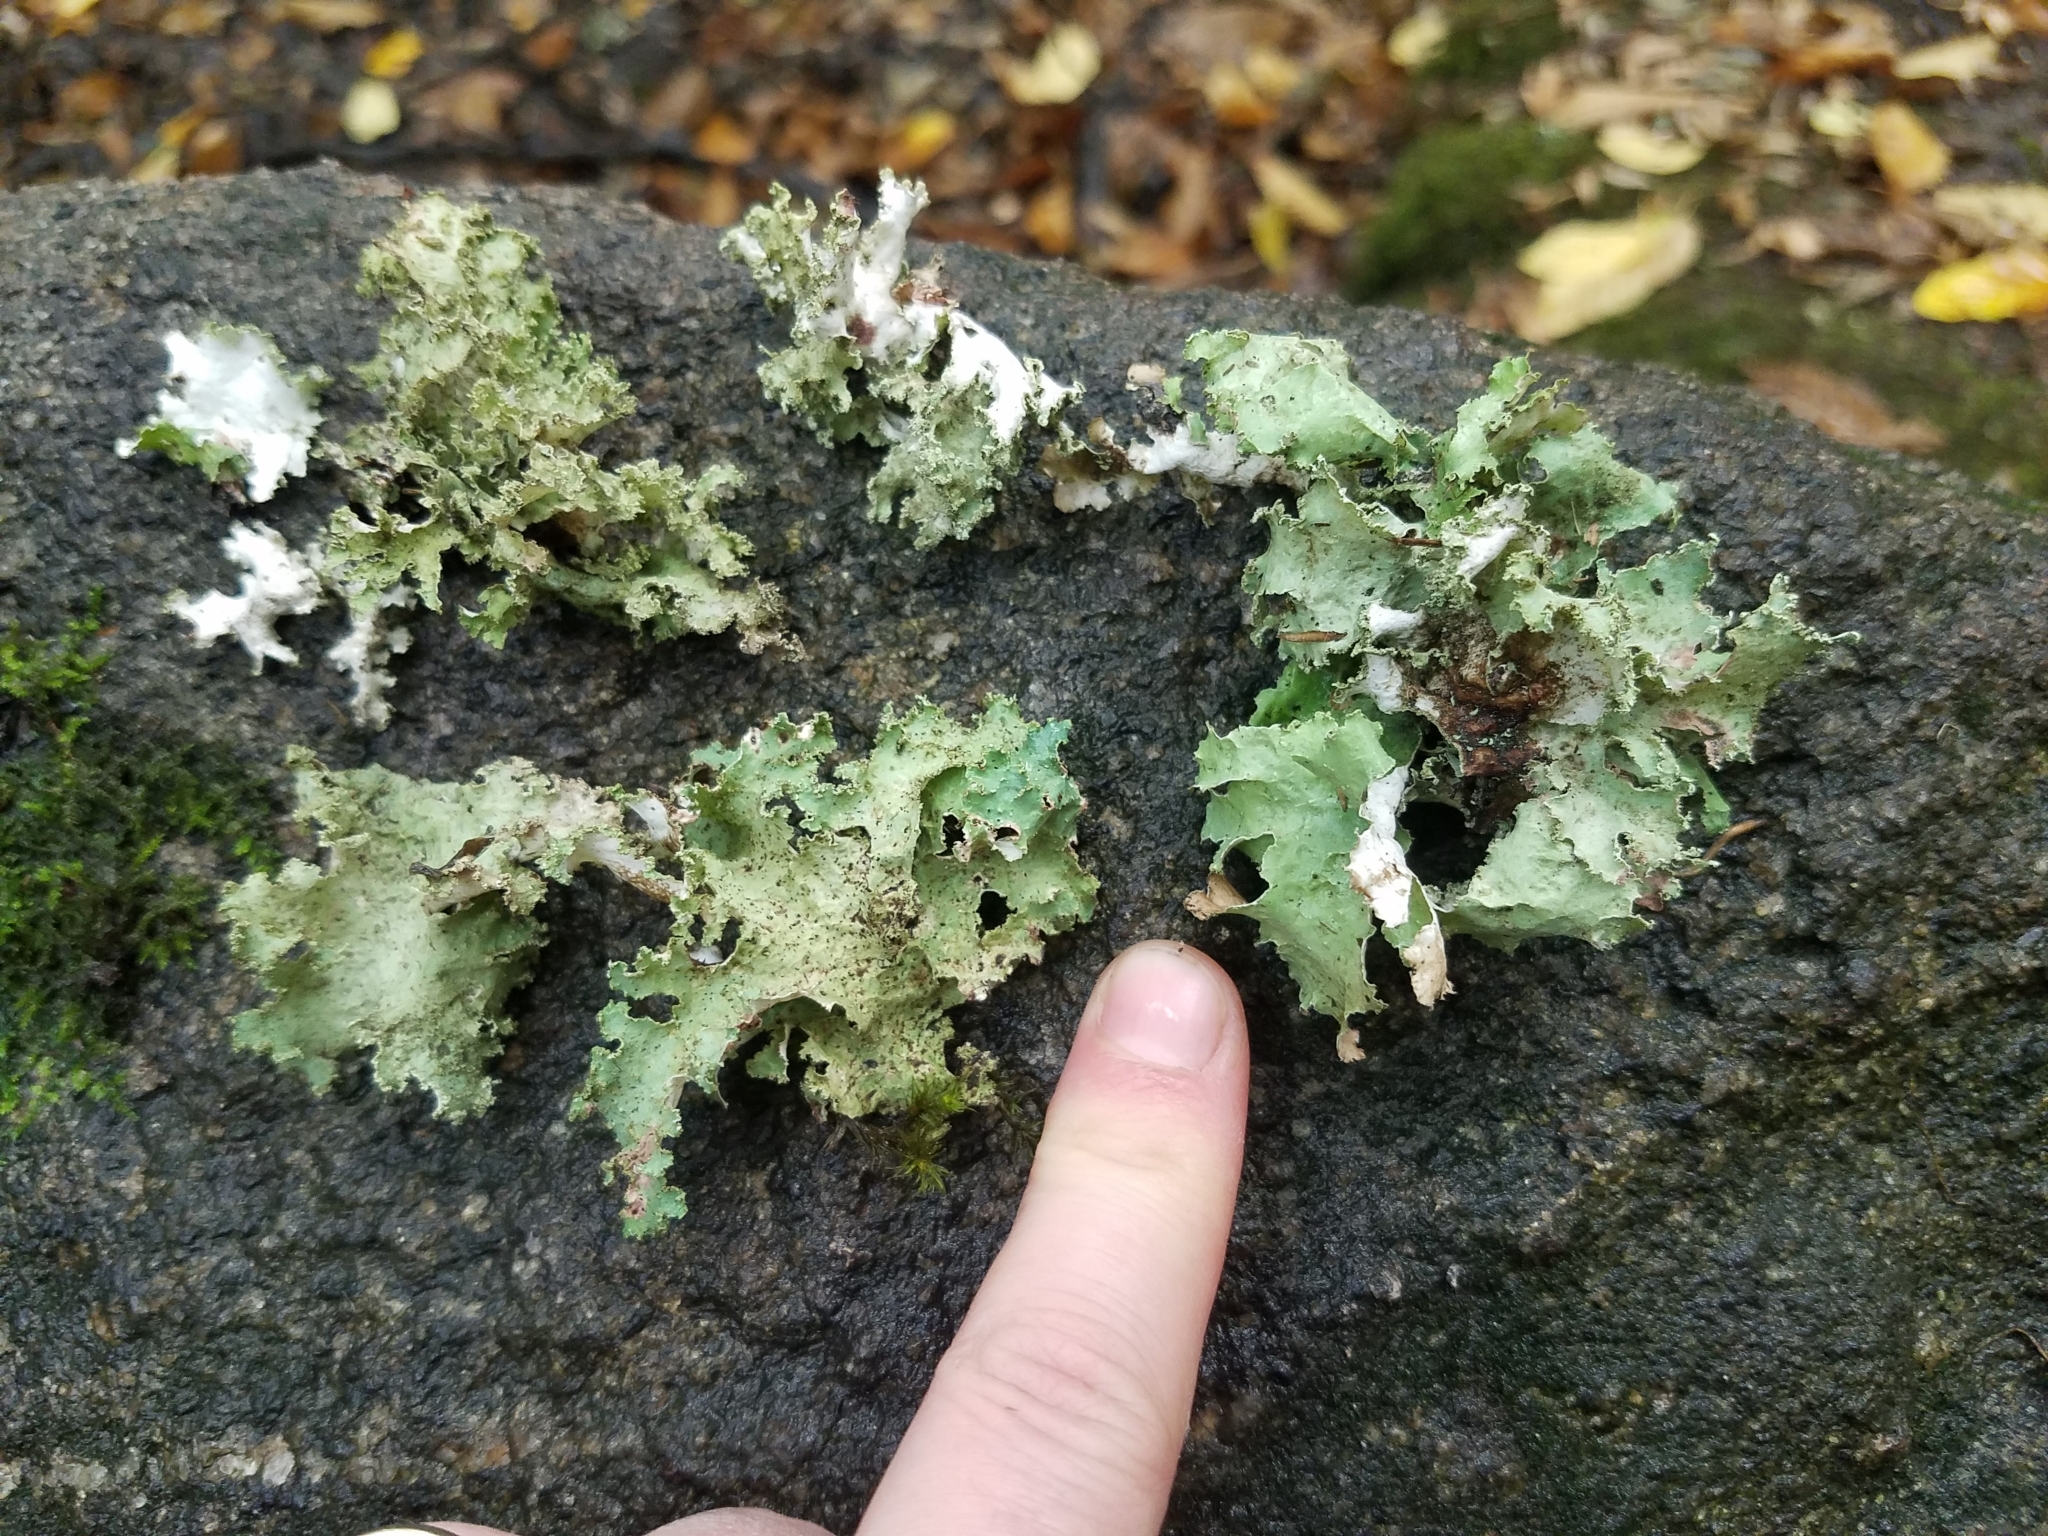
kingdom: Fungi
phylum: Ascomycota
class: Lecanoromycetes
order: Lecanorales
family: Parmeliaceae
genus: Platismatia
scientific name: Platismatia glauca
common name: Varied rag lichen
